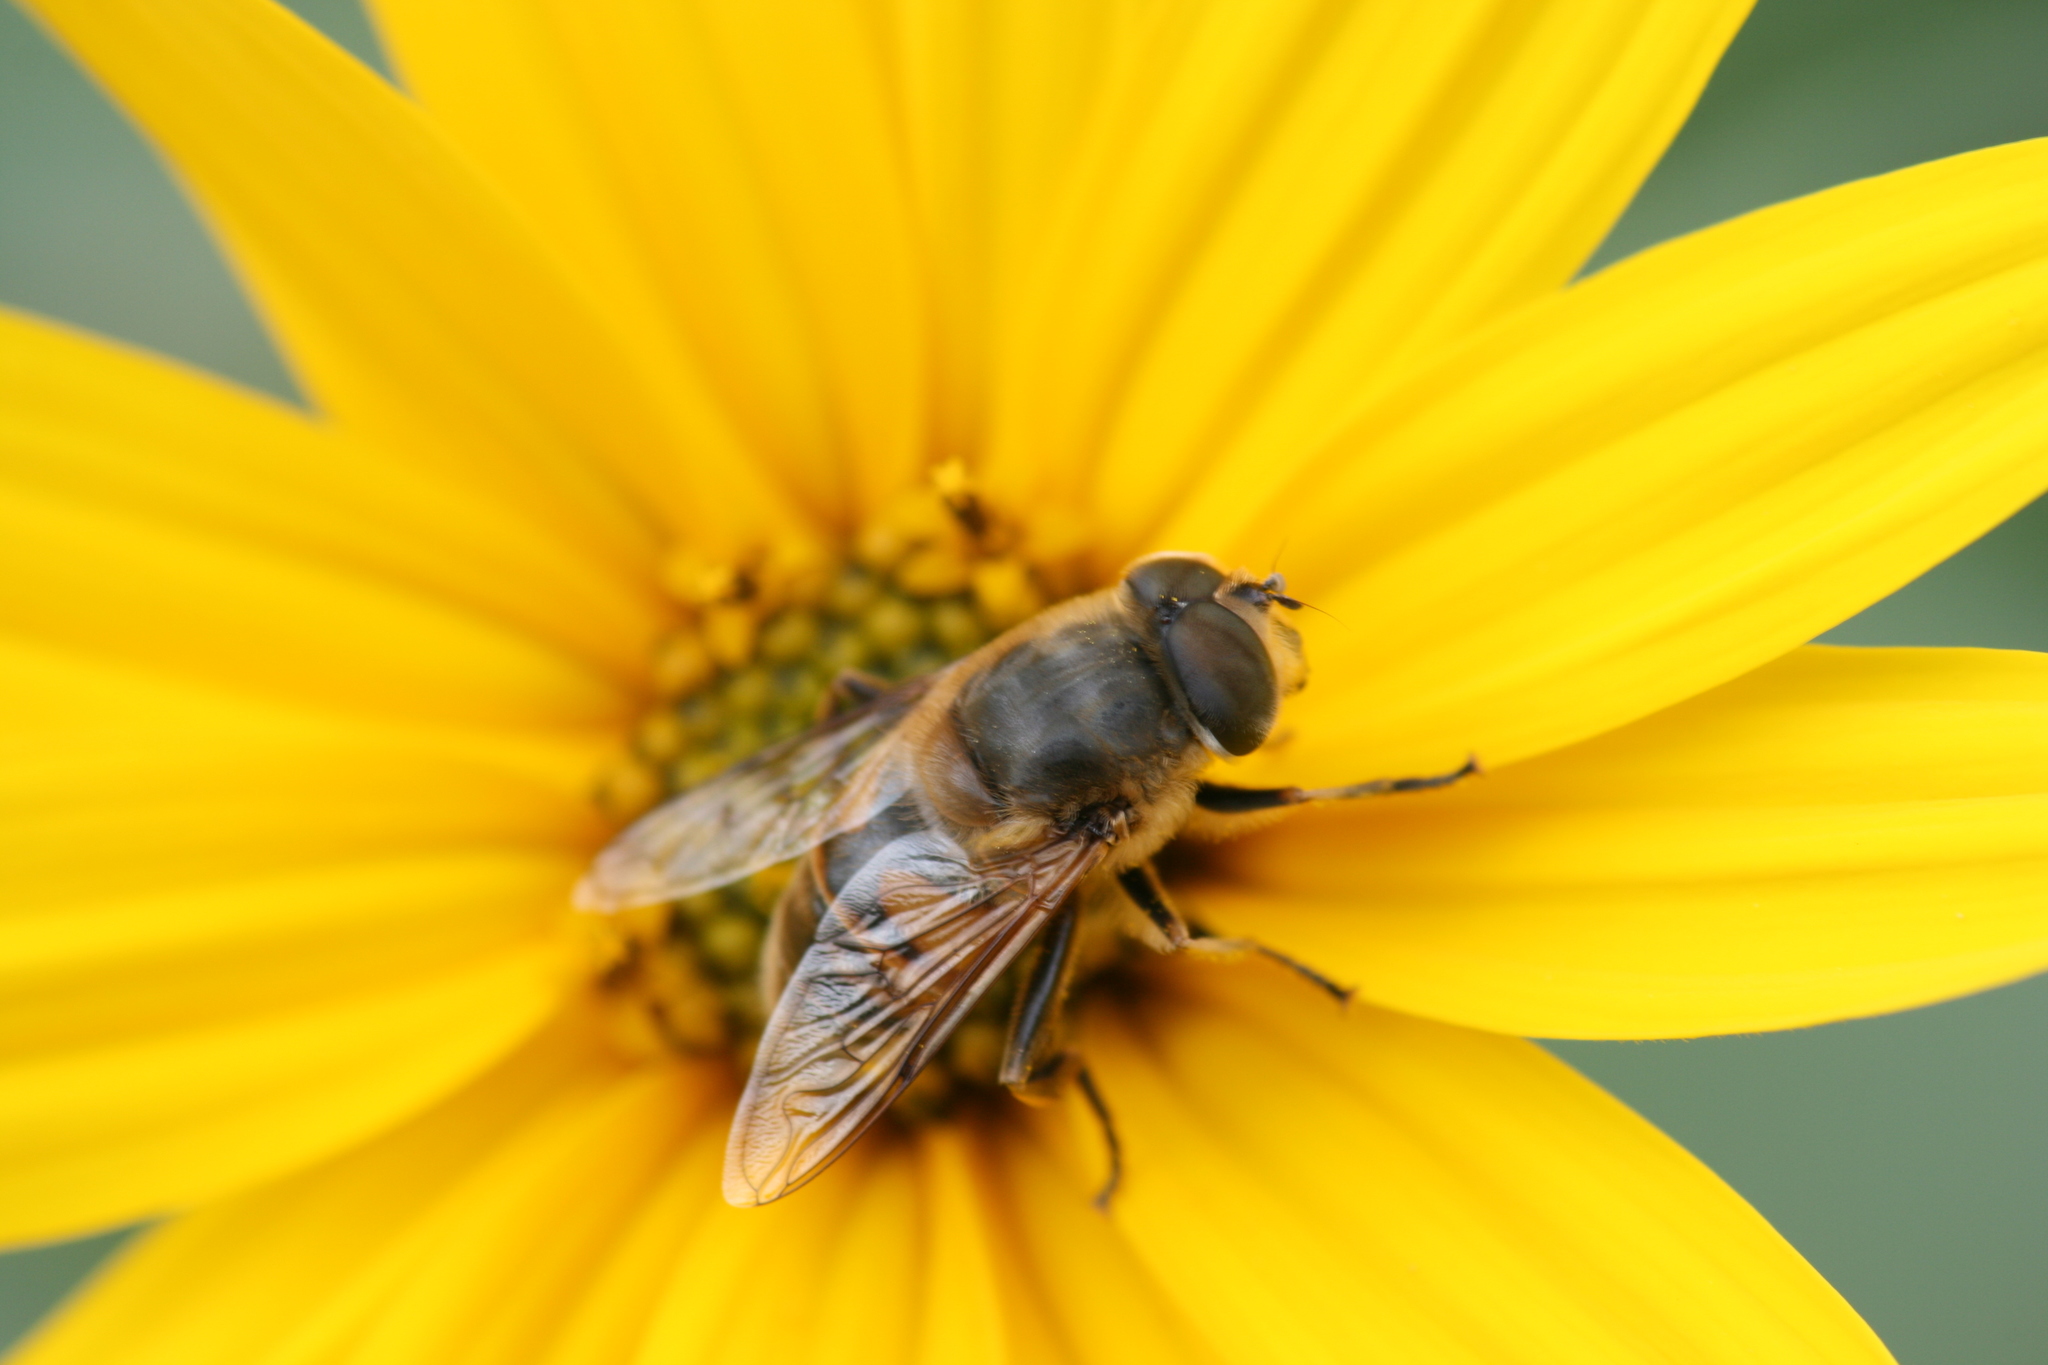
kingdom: Animalia
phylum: Arthropoda
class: Insecta
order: Diptera
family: Syrphidae
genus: Eristalis
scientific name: Eristalis tenax
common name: Drone fly
